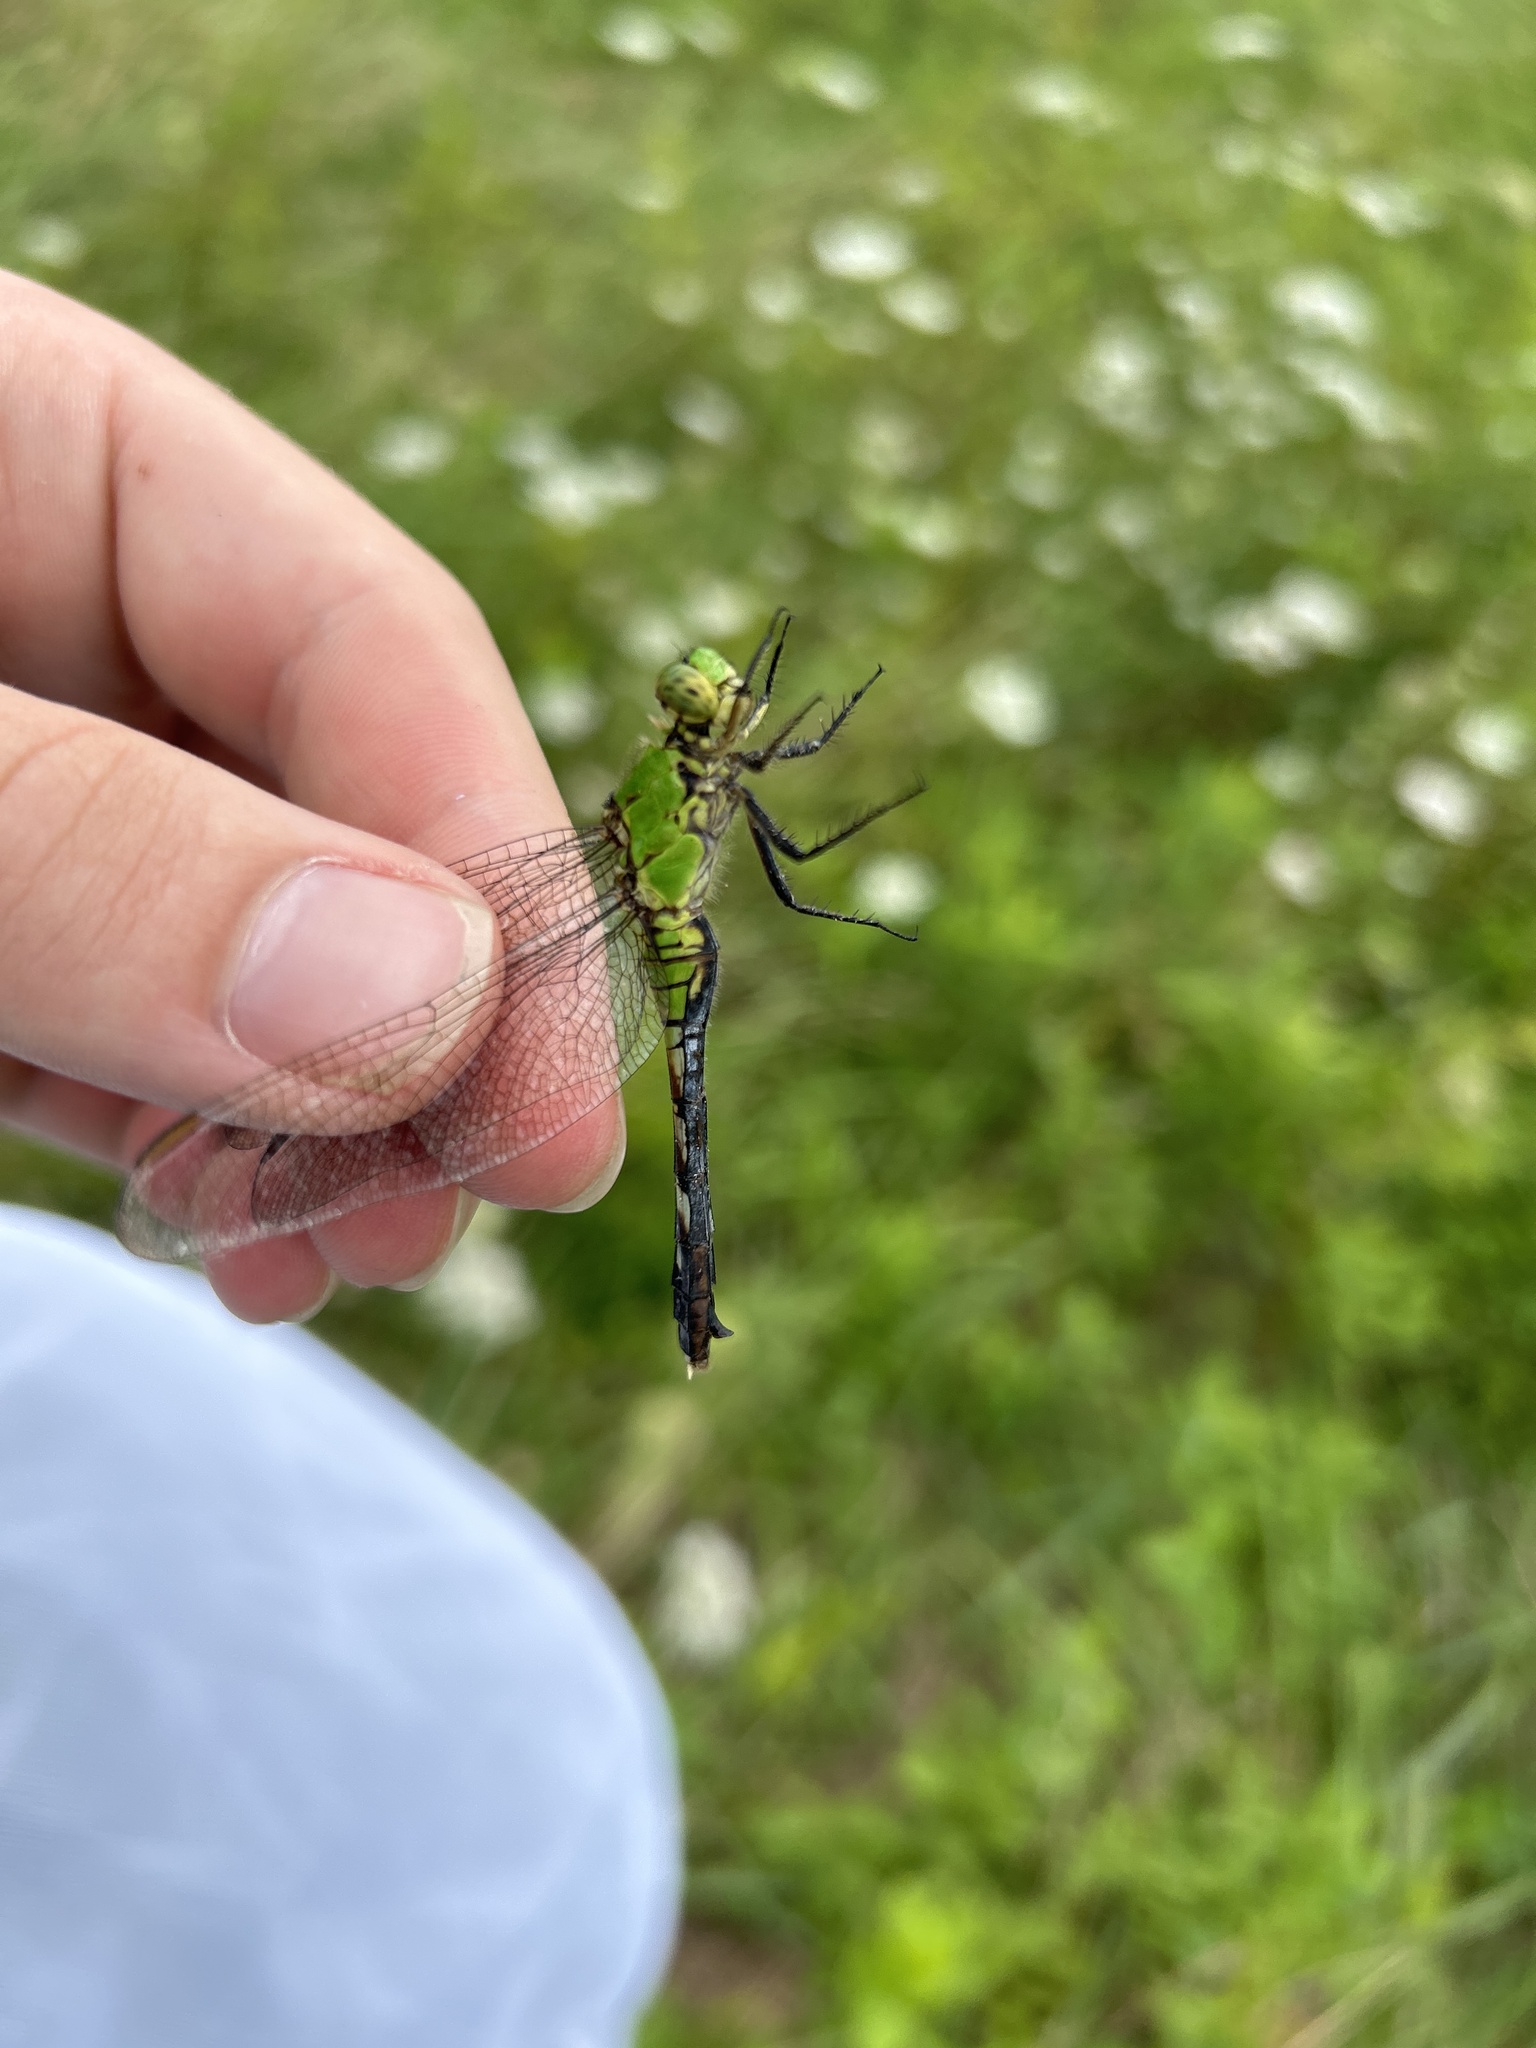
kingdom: Animalia
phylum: Arthropoda
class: Insecta
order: Odonata
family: Libellulidae
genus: Erythemis
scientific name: Erythemis simplicicollis
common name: Eastern pondhawk
